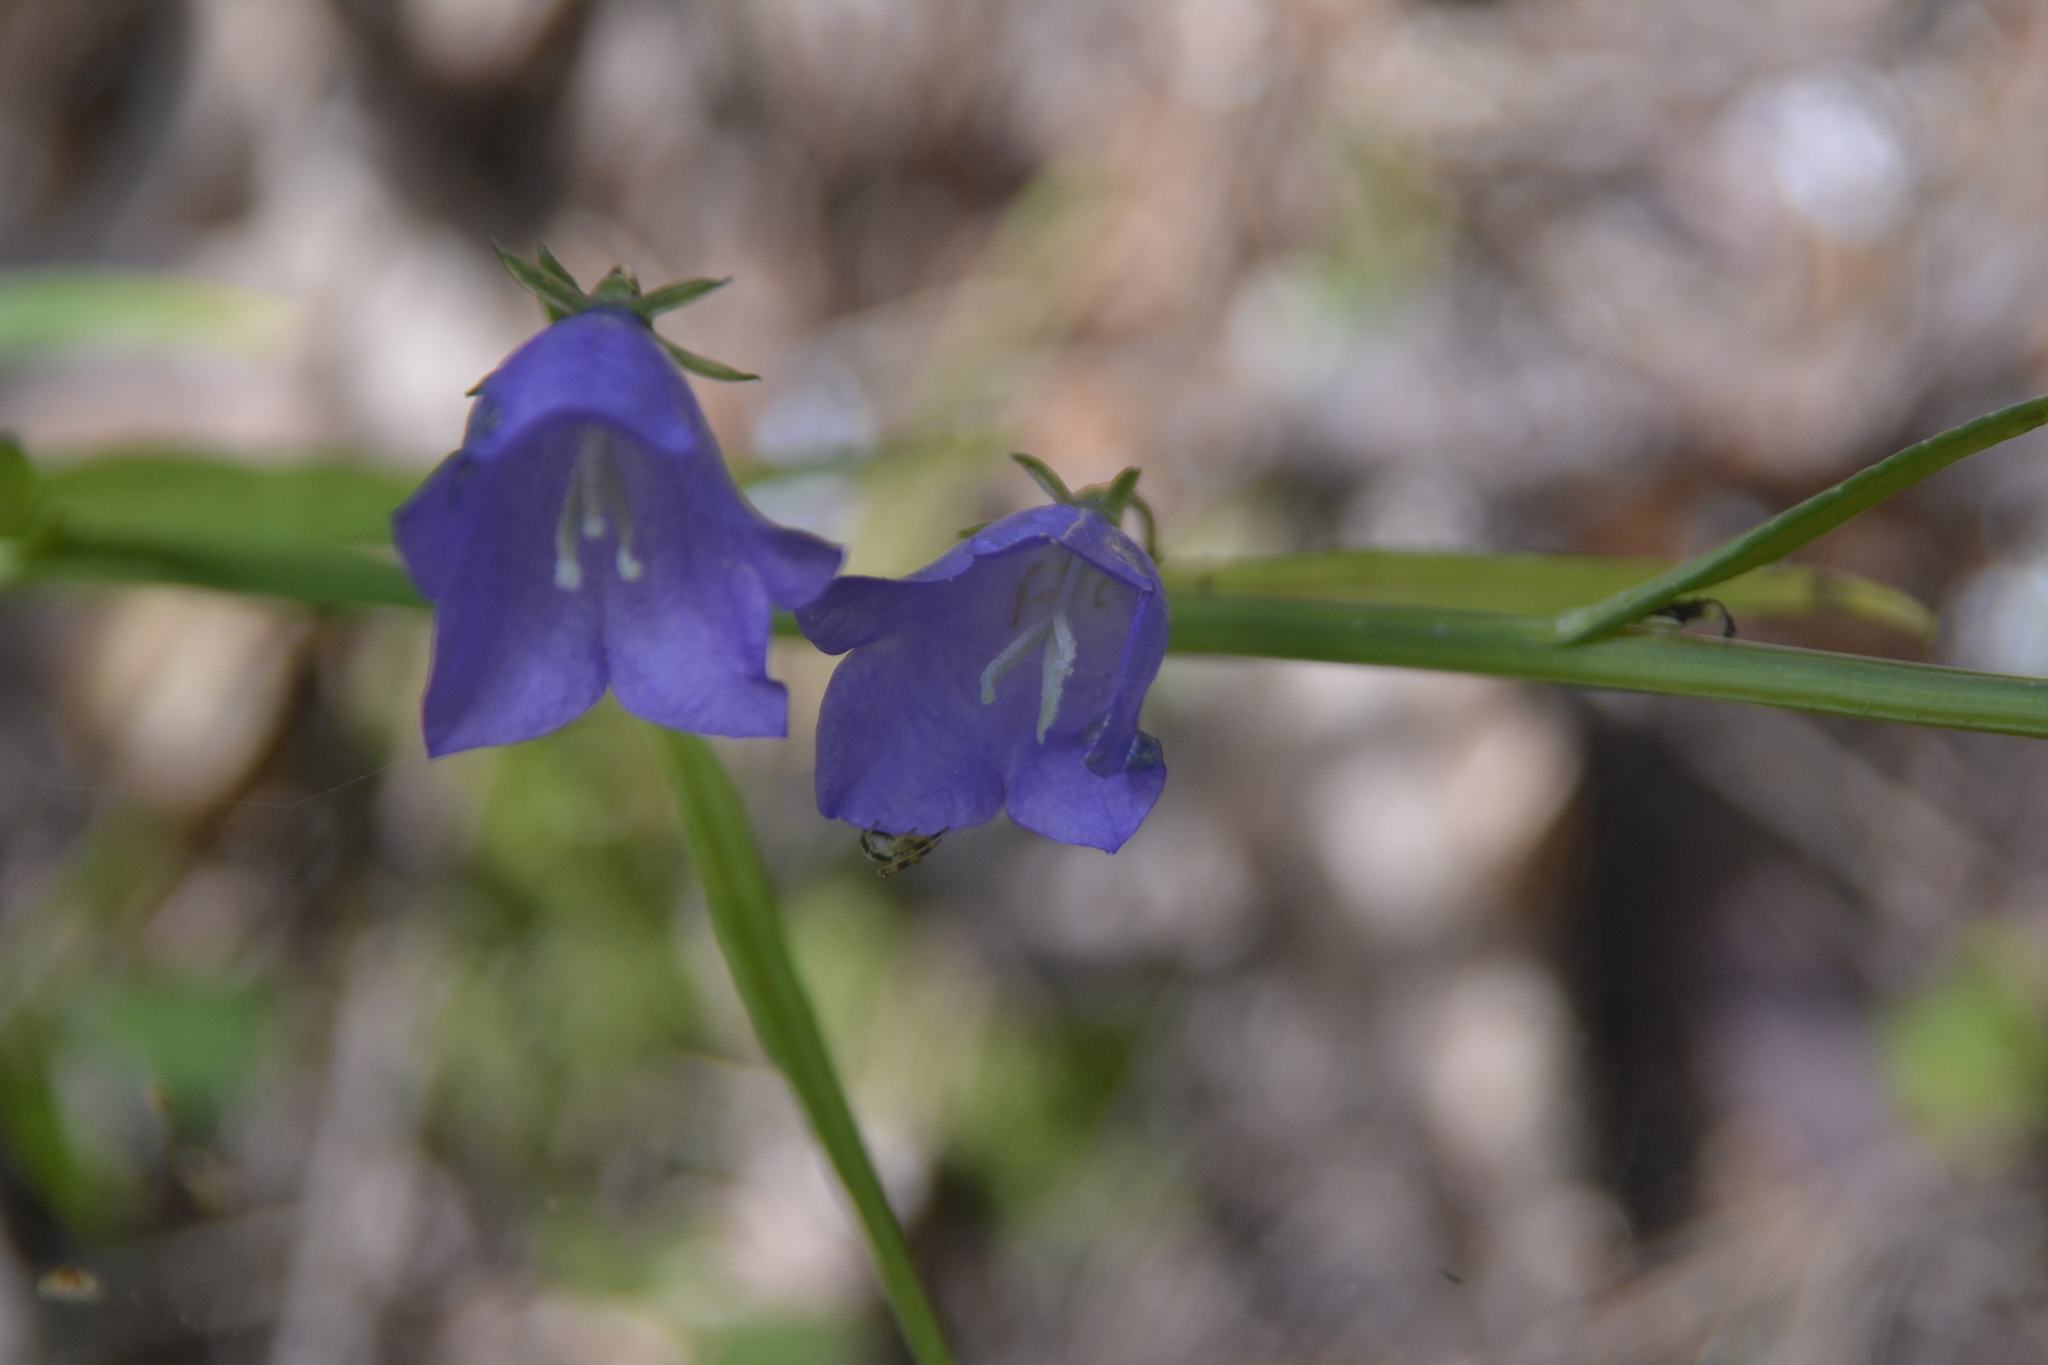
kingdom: Plantae
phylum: Tracheophyta
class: Magnoliopsida
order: Asterales
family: Campanulaceae
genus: Campanula
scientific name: Campanula persicifolia
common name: Peach-leaved bellflower
